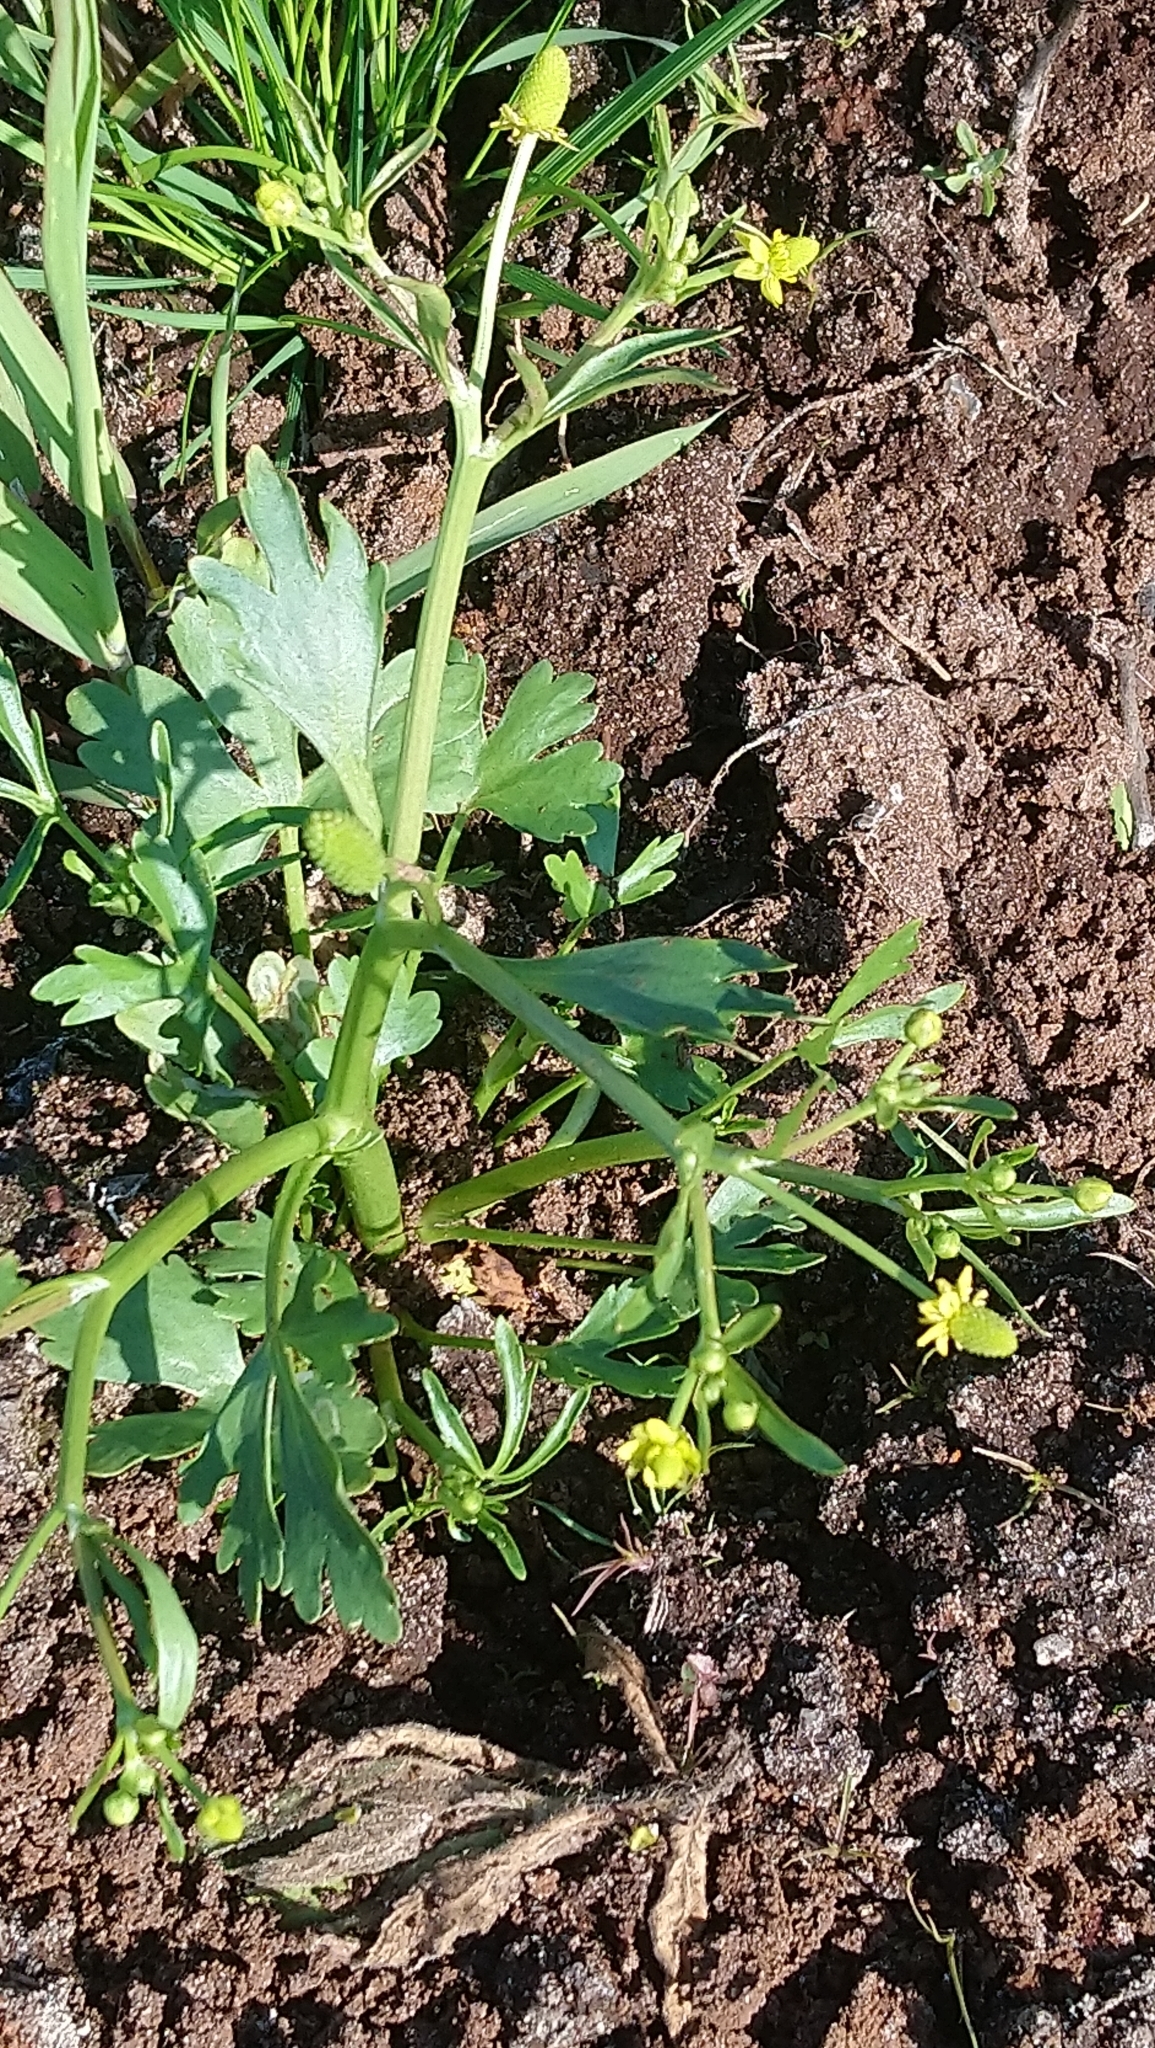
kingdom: Plantae
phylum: Tracheophyta
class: Magnoliopsida
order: Ranunculales
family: Ranunculaceae
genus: Ranunculus
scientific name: Ranunculus sceleratus
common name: Celery-leaved buttercup
